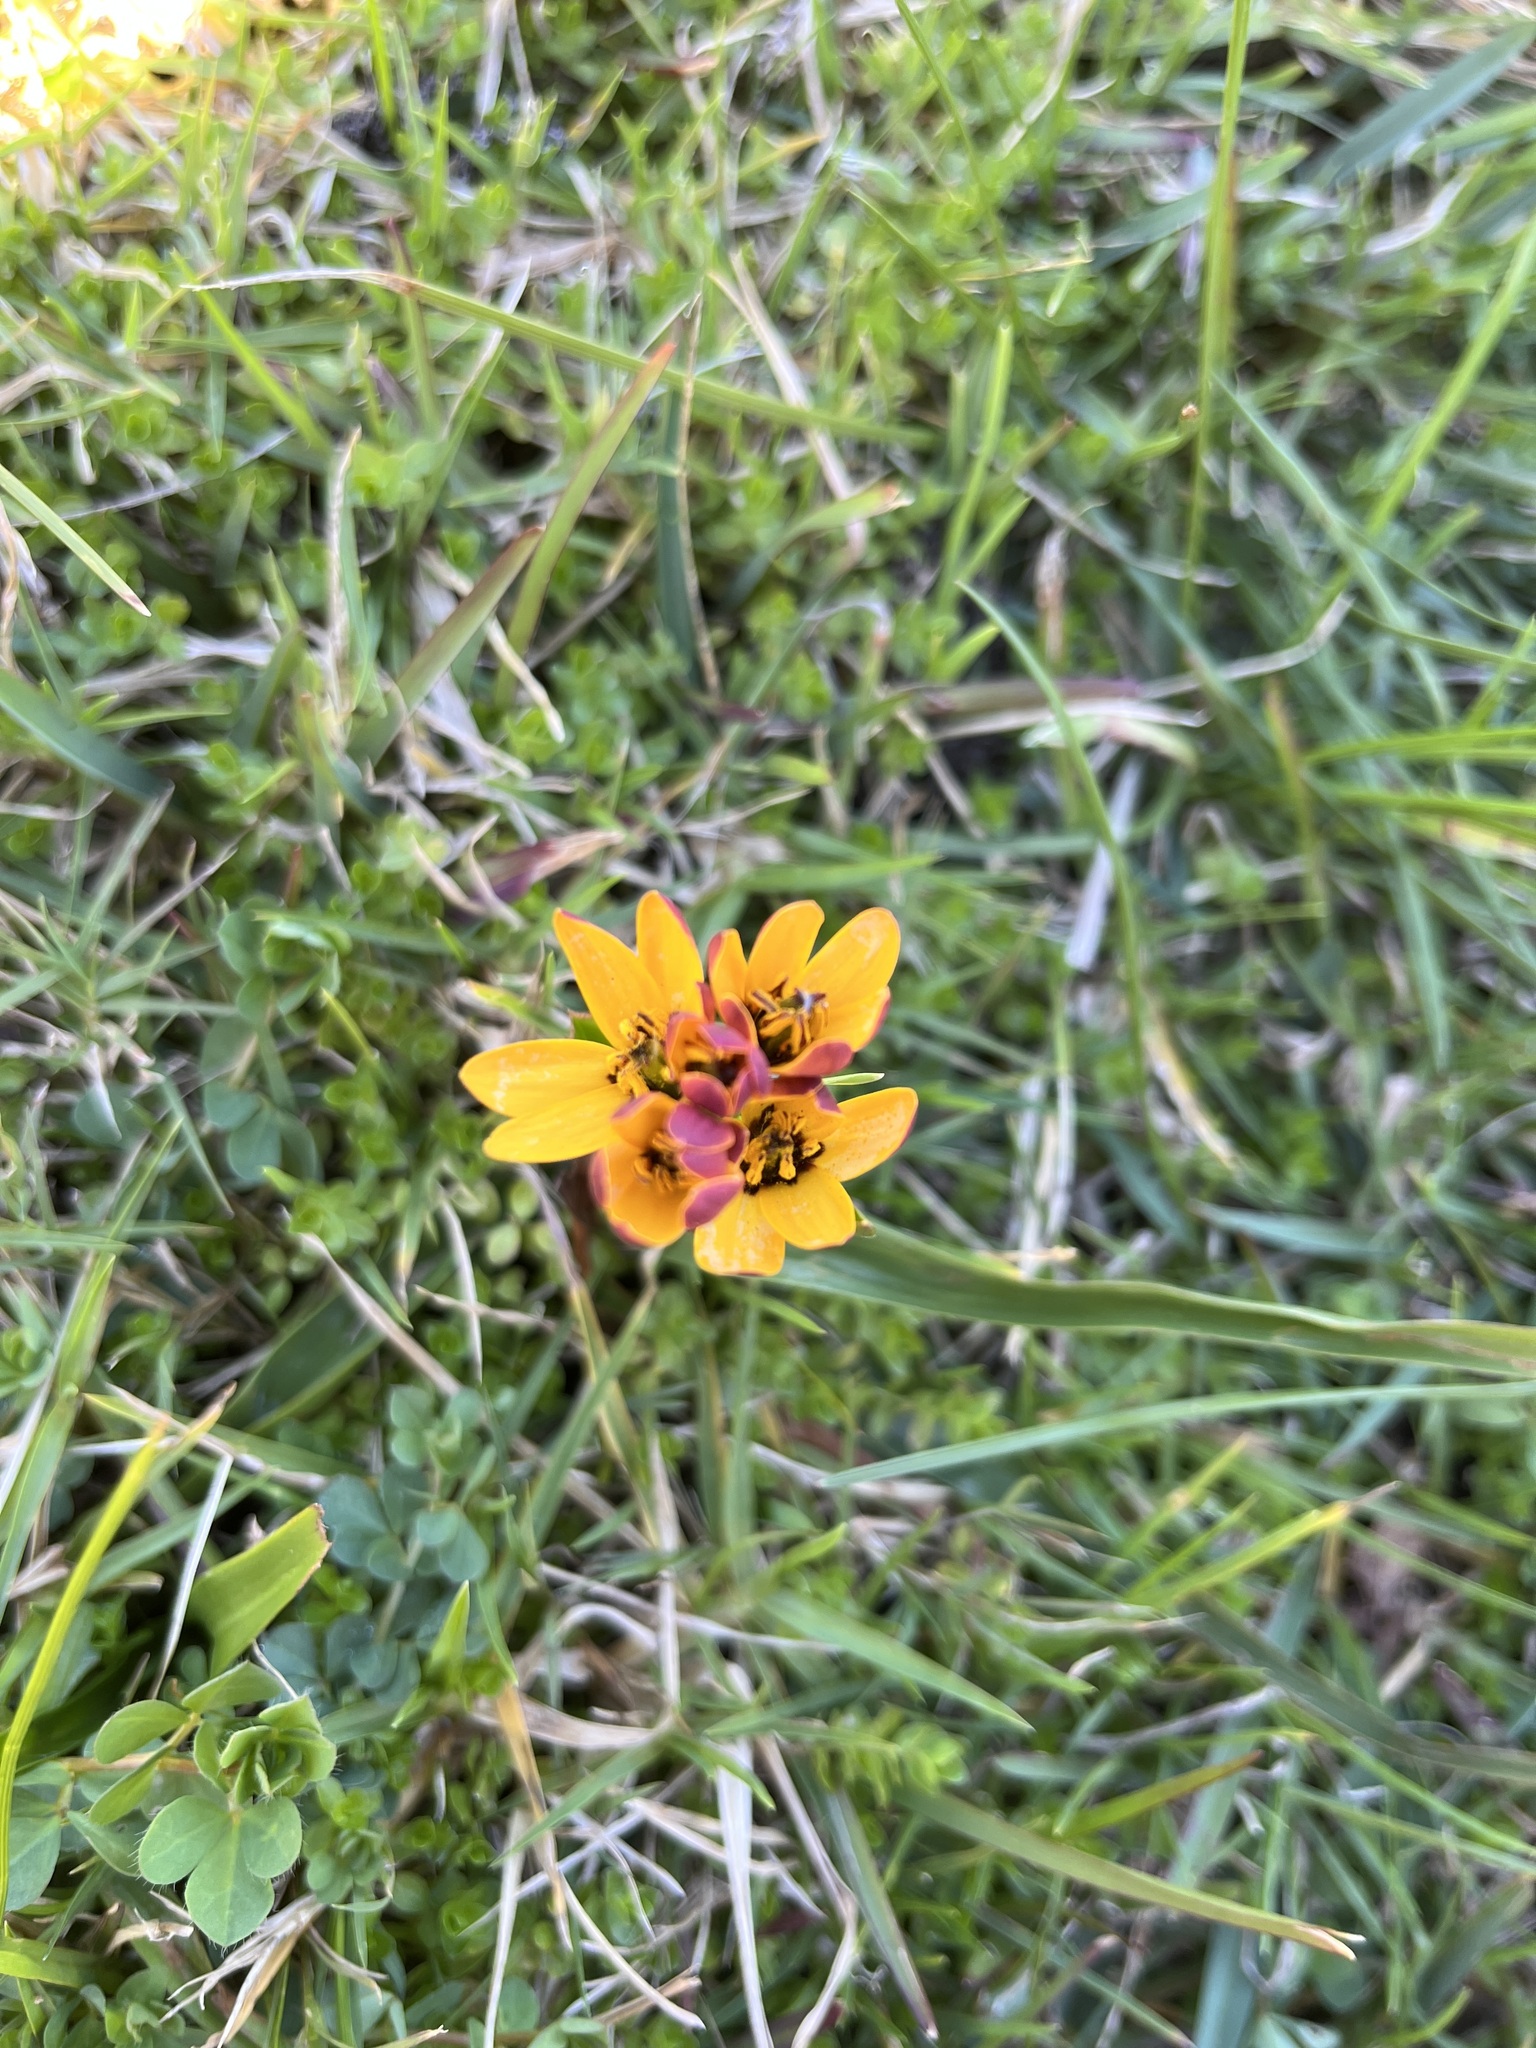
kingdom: Plantae
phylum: Tracheophyta
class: Liliopsida
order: Liliales
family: Colchicaceae
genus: Baeometra
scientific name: Baeometra uniflora
